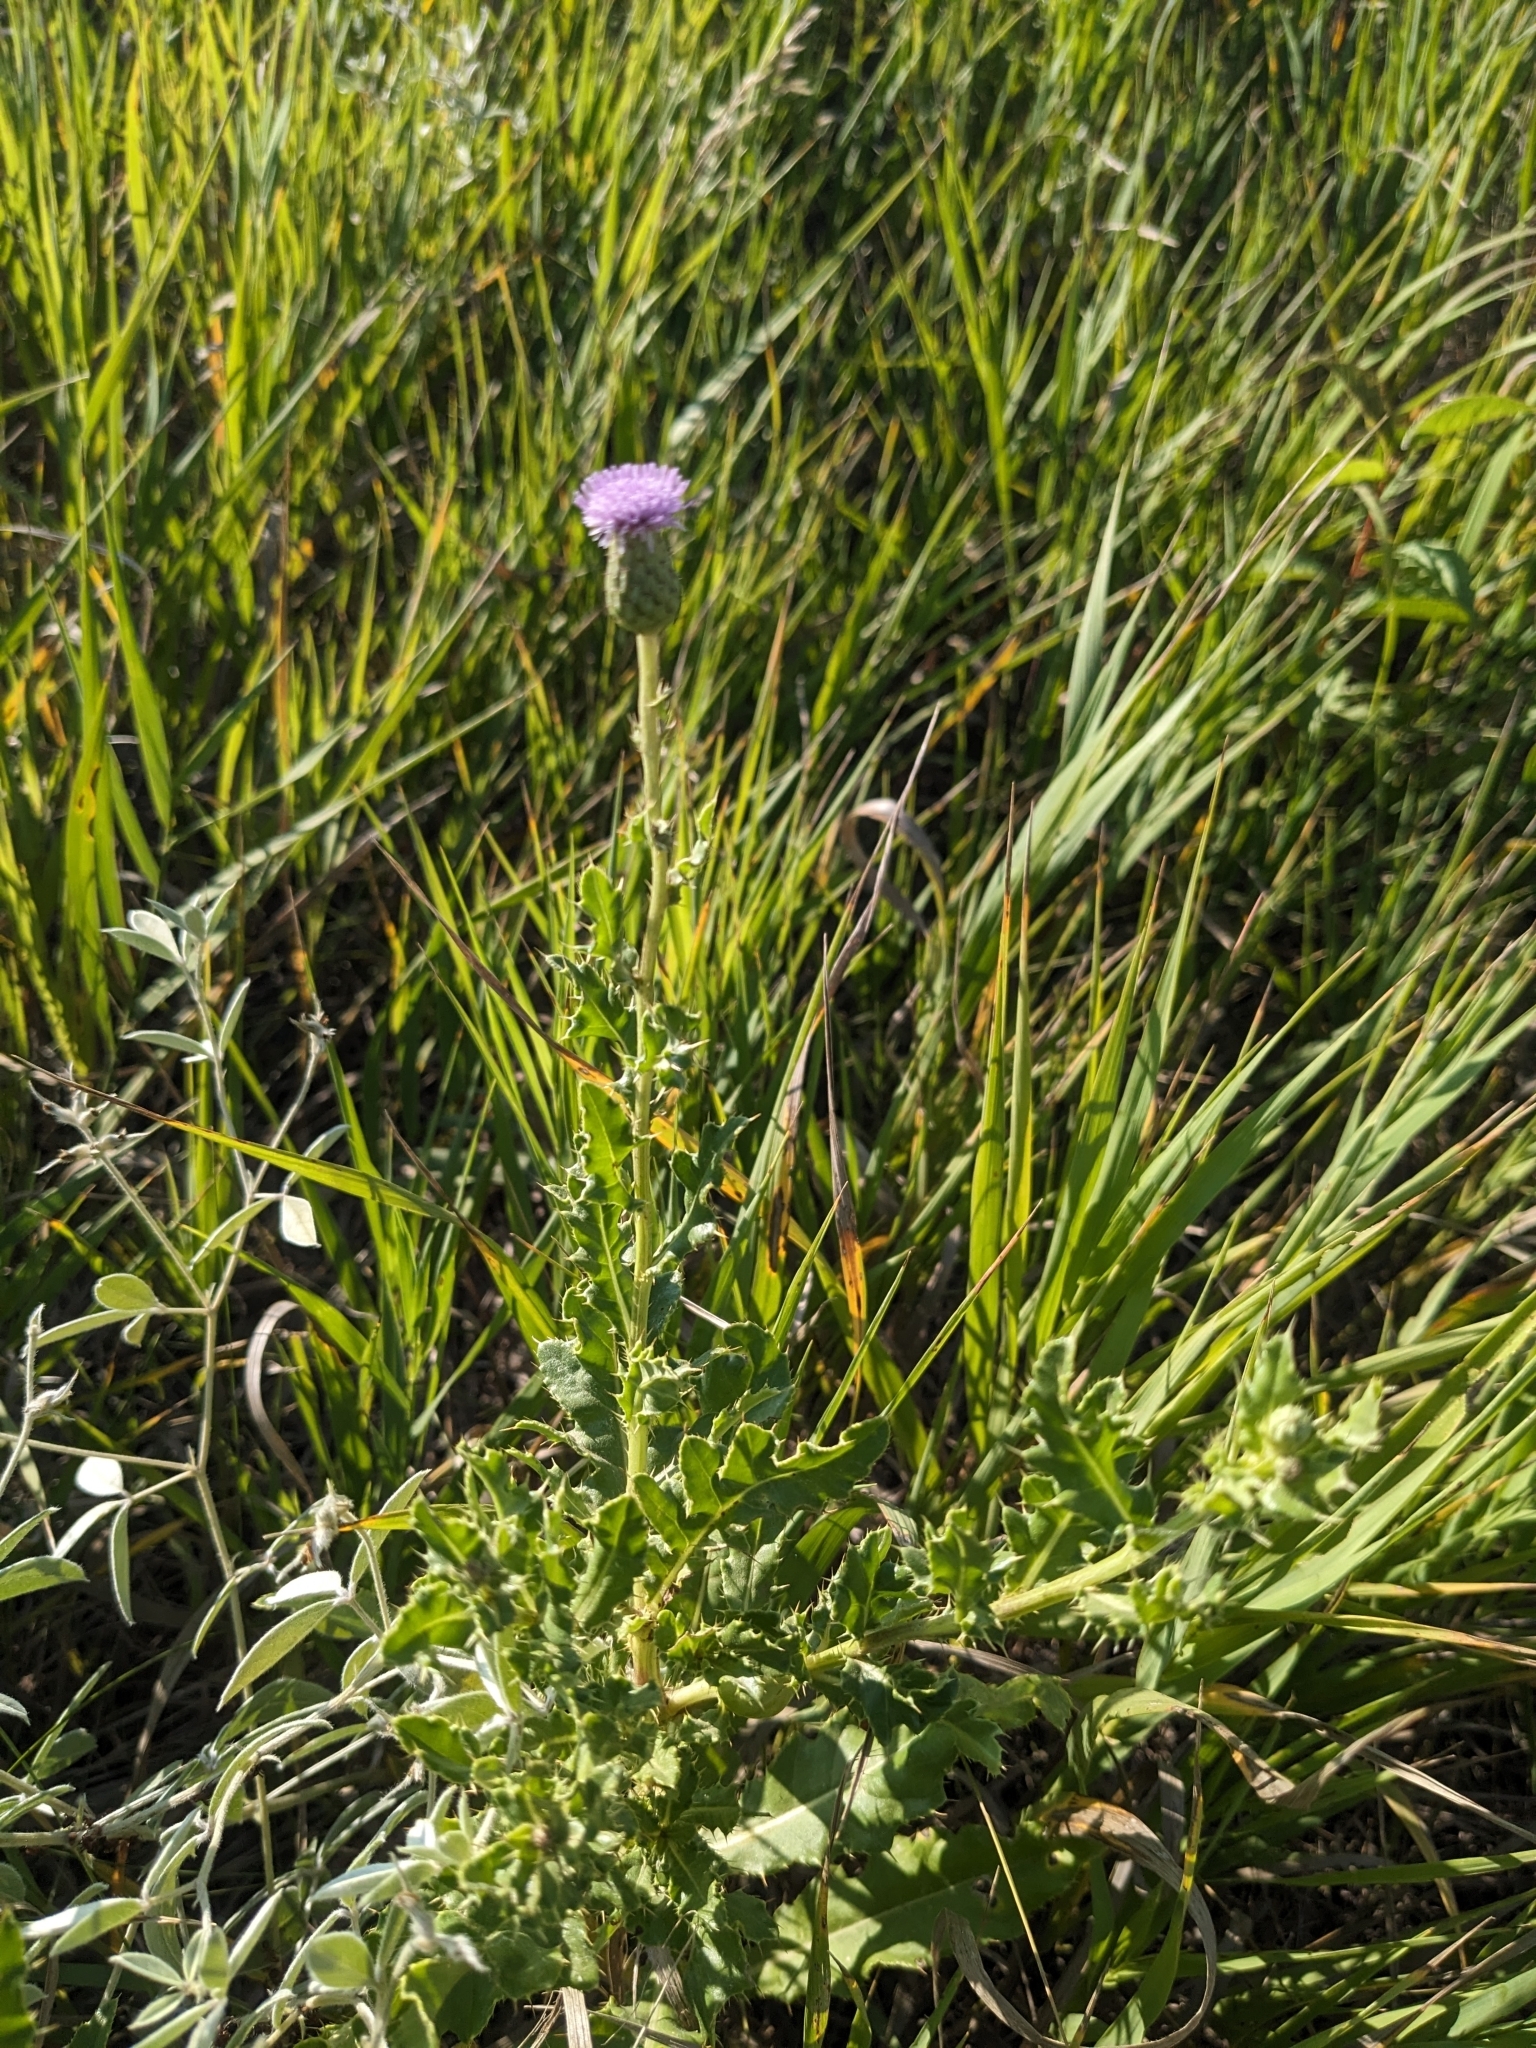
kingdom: Plantae
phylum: Tracheophyta
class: Magnoliopsida
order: Asterales
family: Asteraceae
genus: Cirsium
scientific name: Cirsium arvense
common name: Creeping thistle
